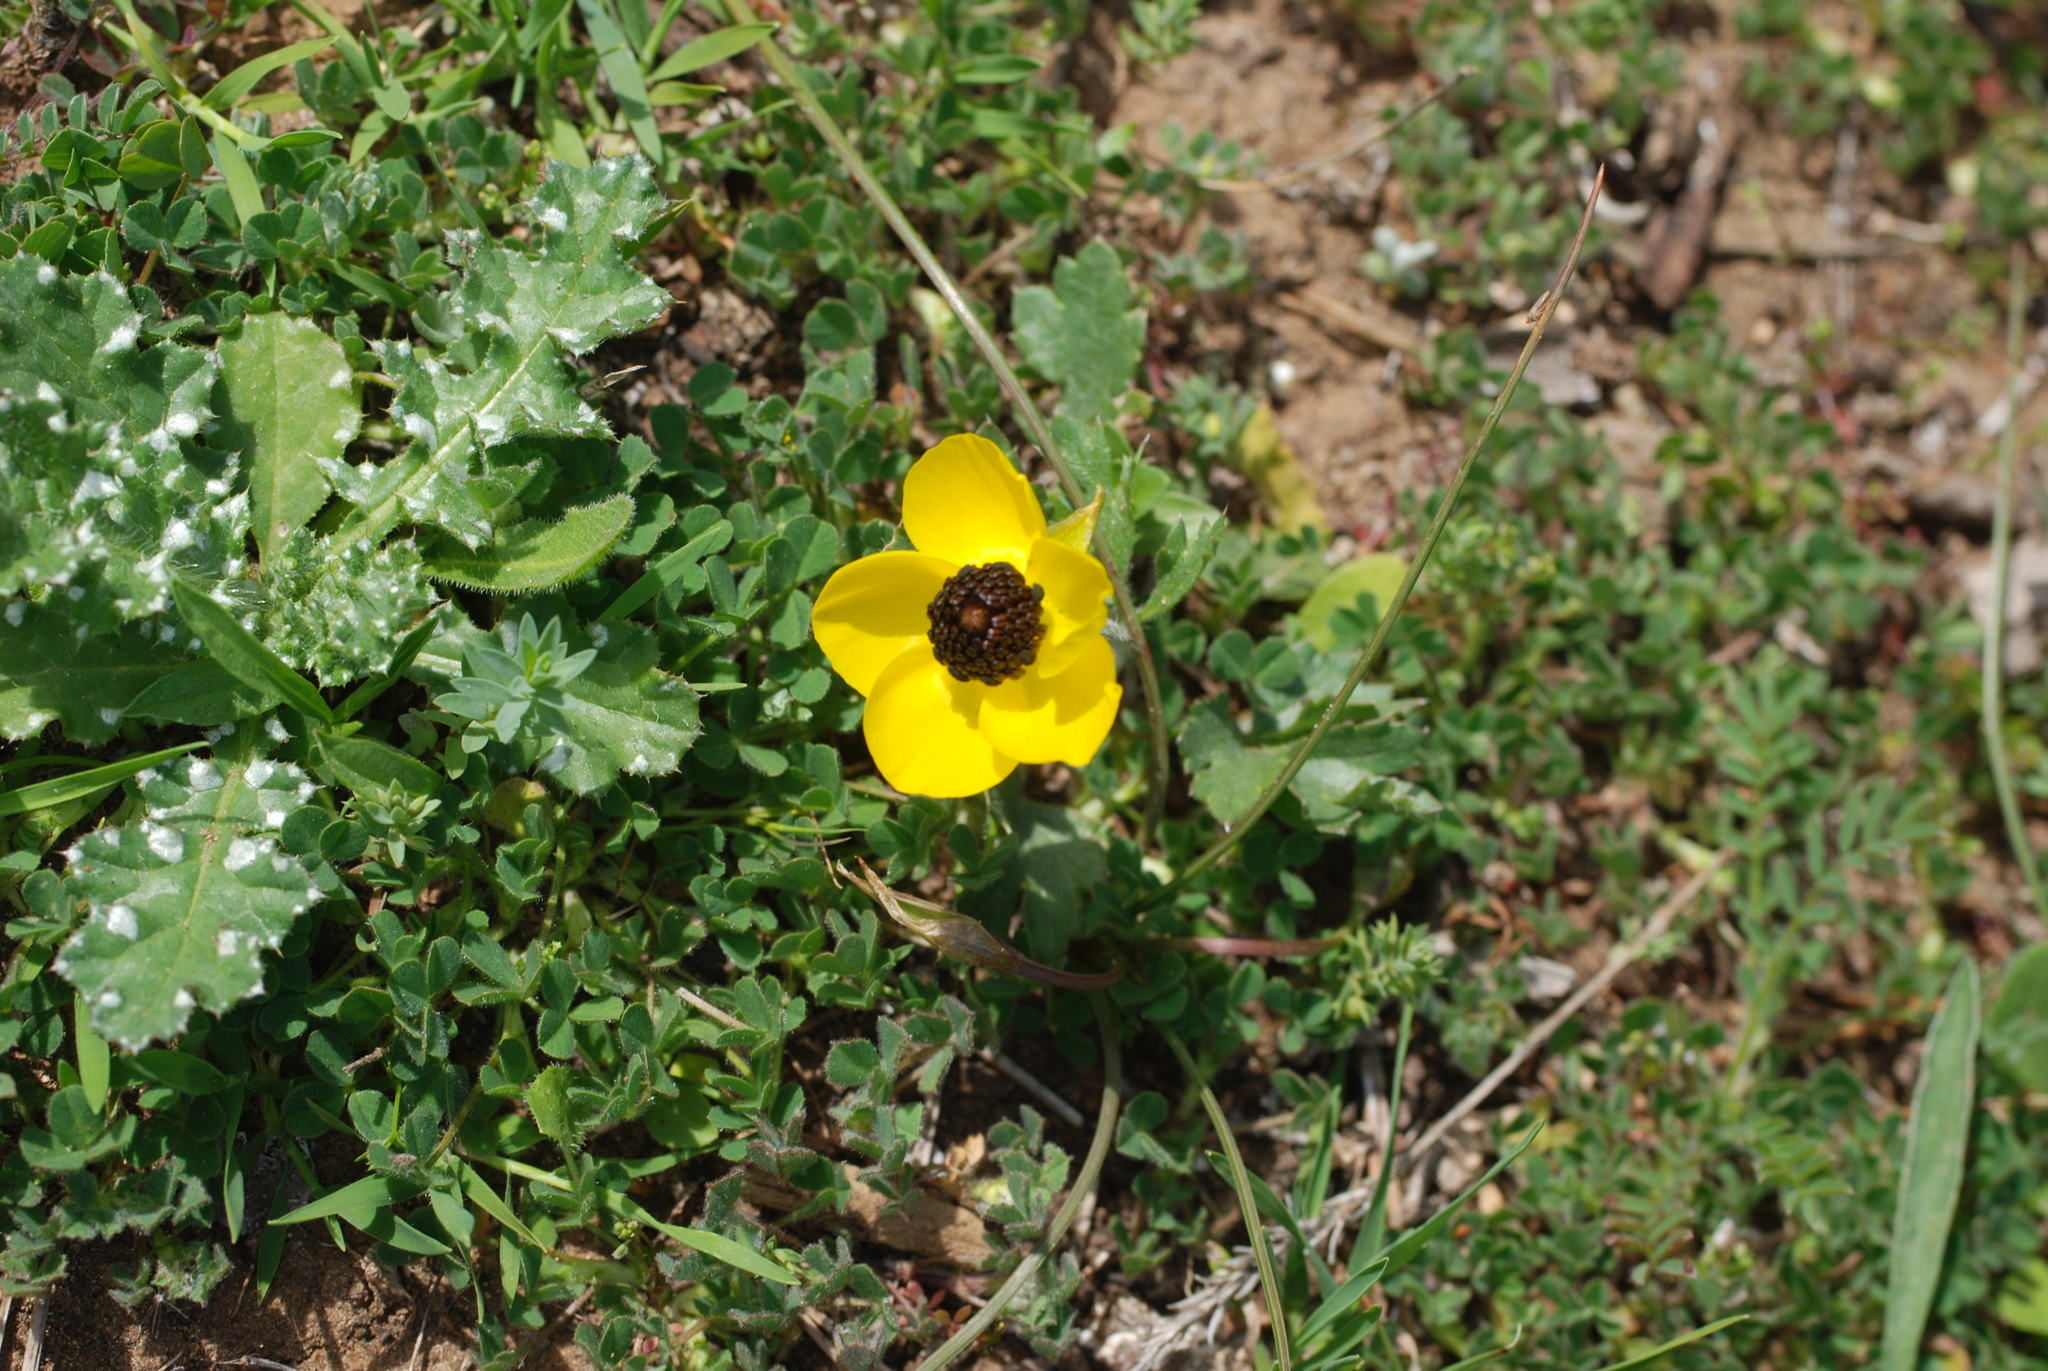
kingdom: Plantae
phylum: Tracheophyta
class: Magnoliopsida
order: Ranunculales
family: Ranunculaceae
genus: Ranunculus
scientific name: Ranunculus asiaticus
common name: Persian buttercup
